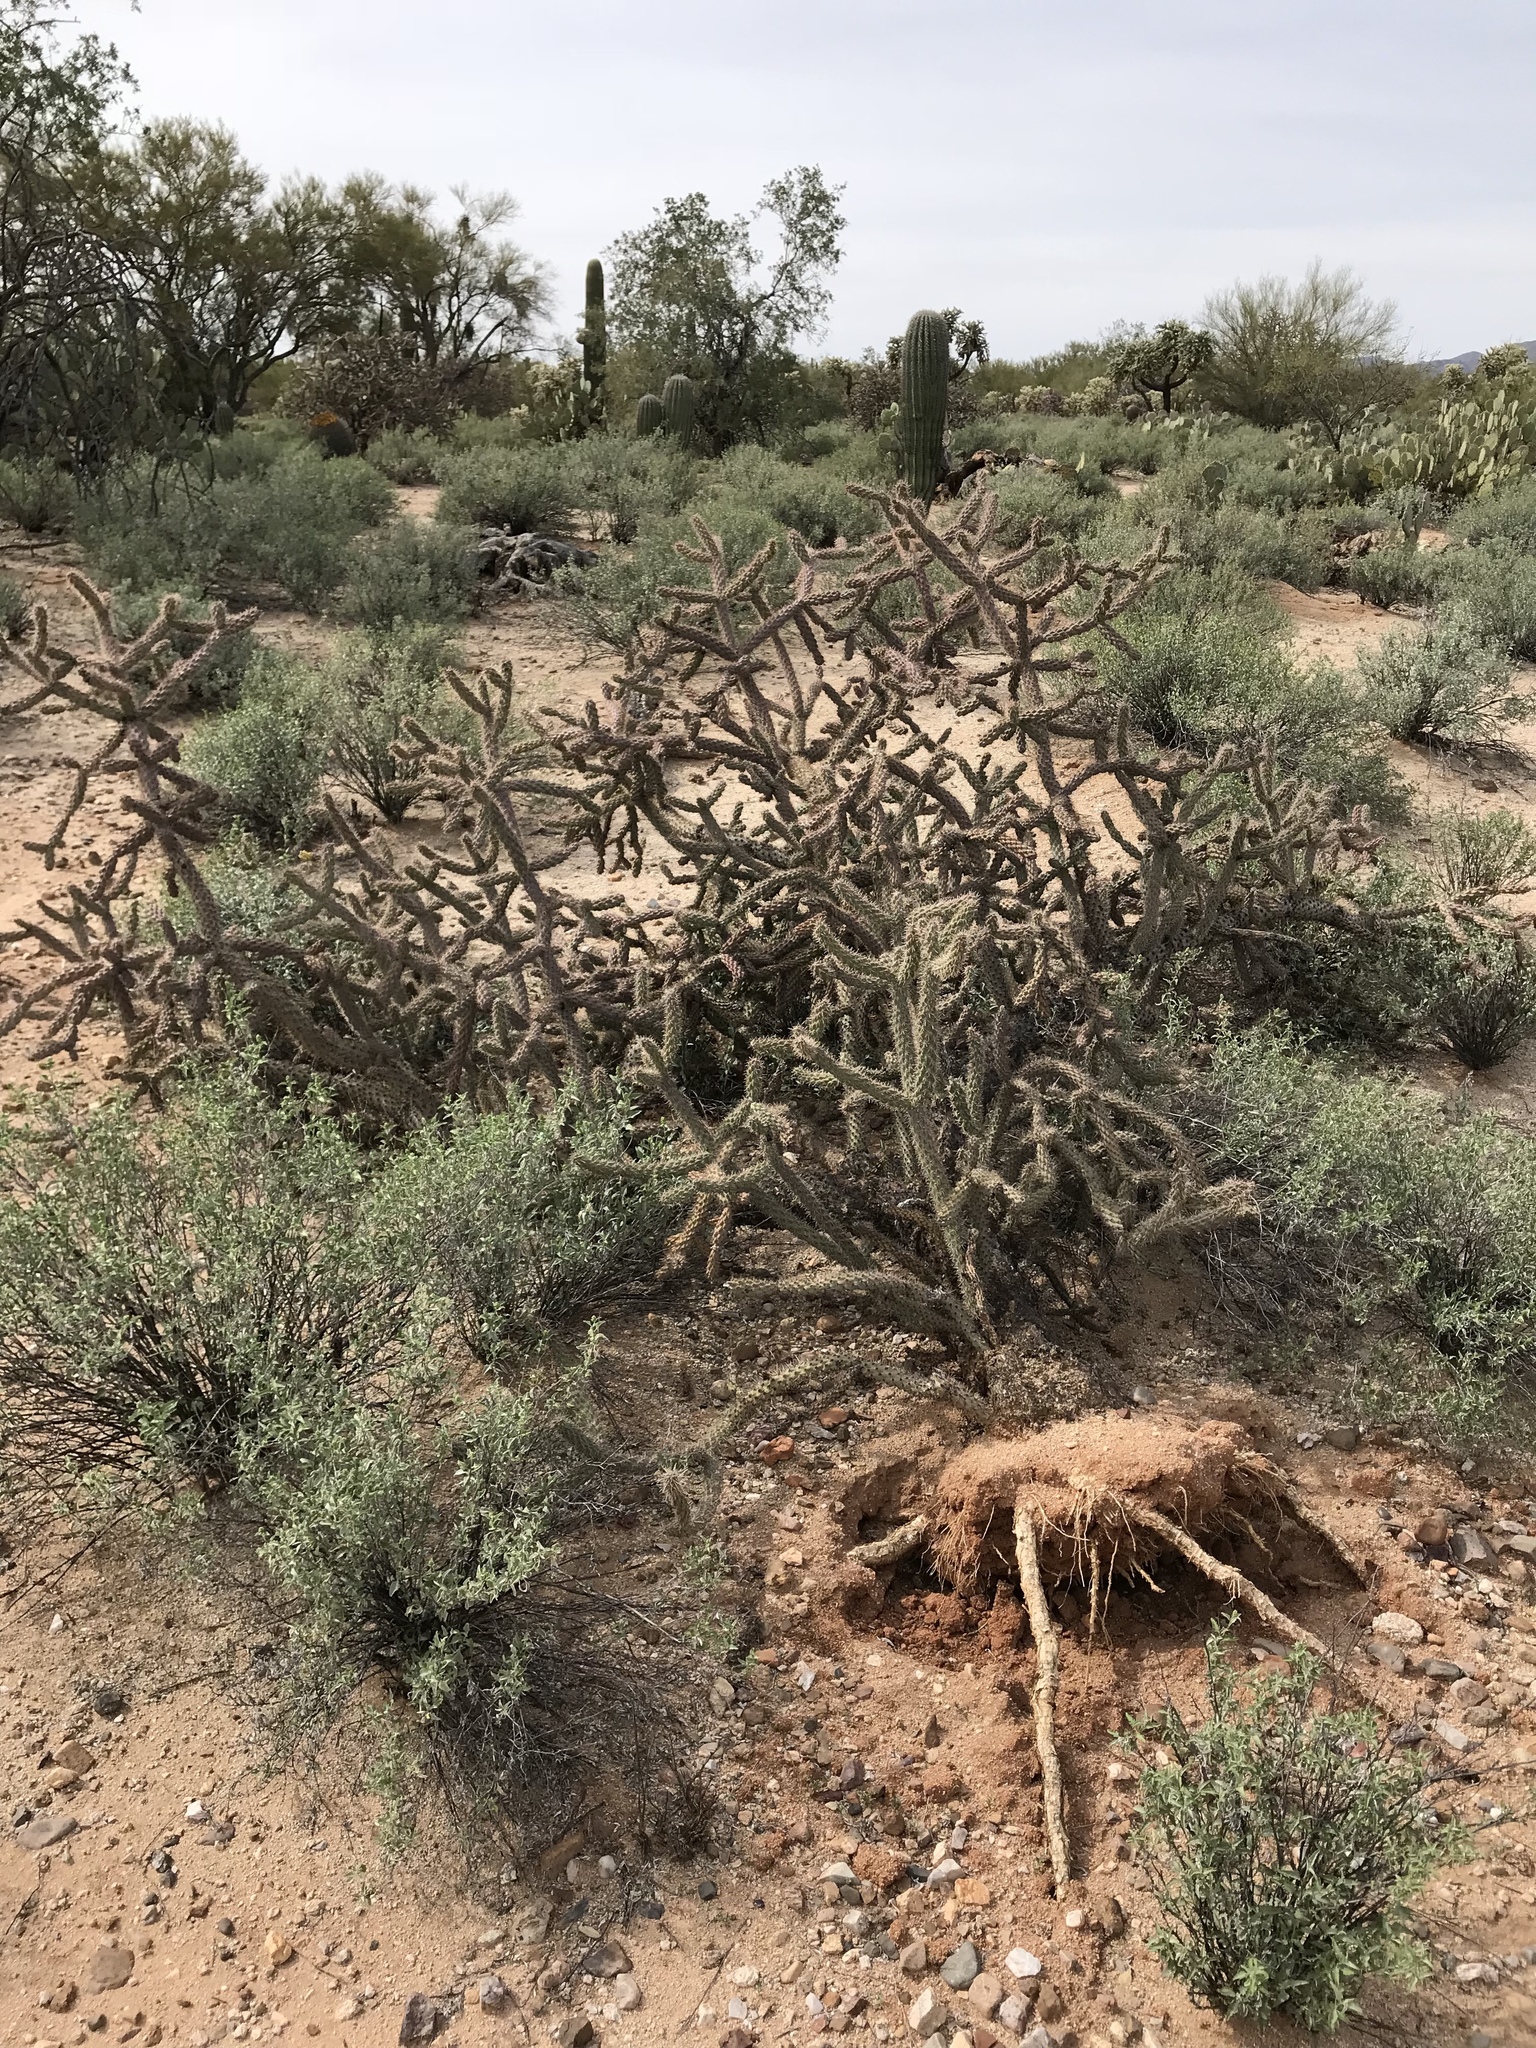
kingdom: Plantae
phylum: Tracheophyta
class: Magnoliopsida
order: Caryophyllales
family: Cactaceae
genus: Cylindropuntia
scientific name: Cylindropuntia imbricata
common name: Candelabrum cactus
